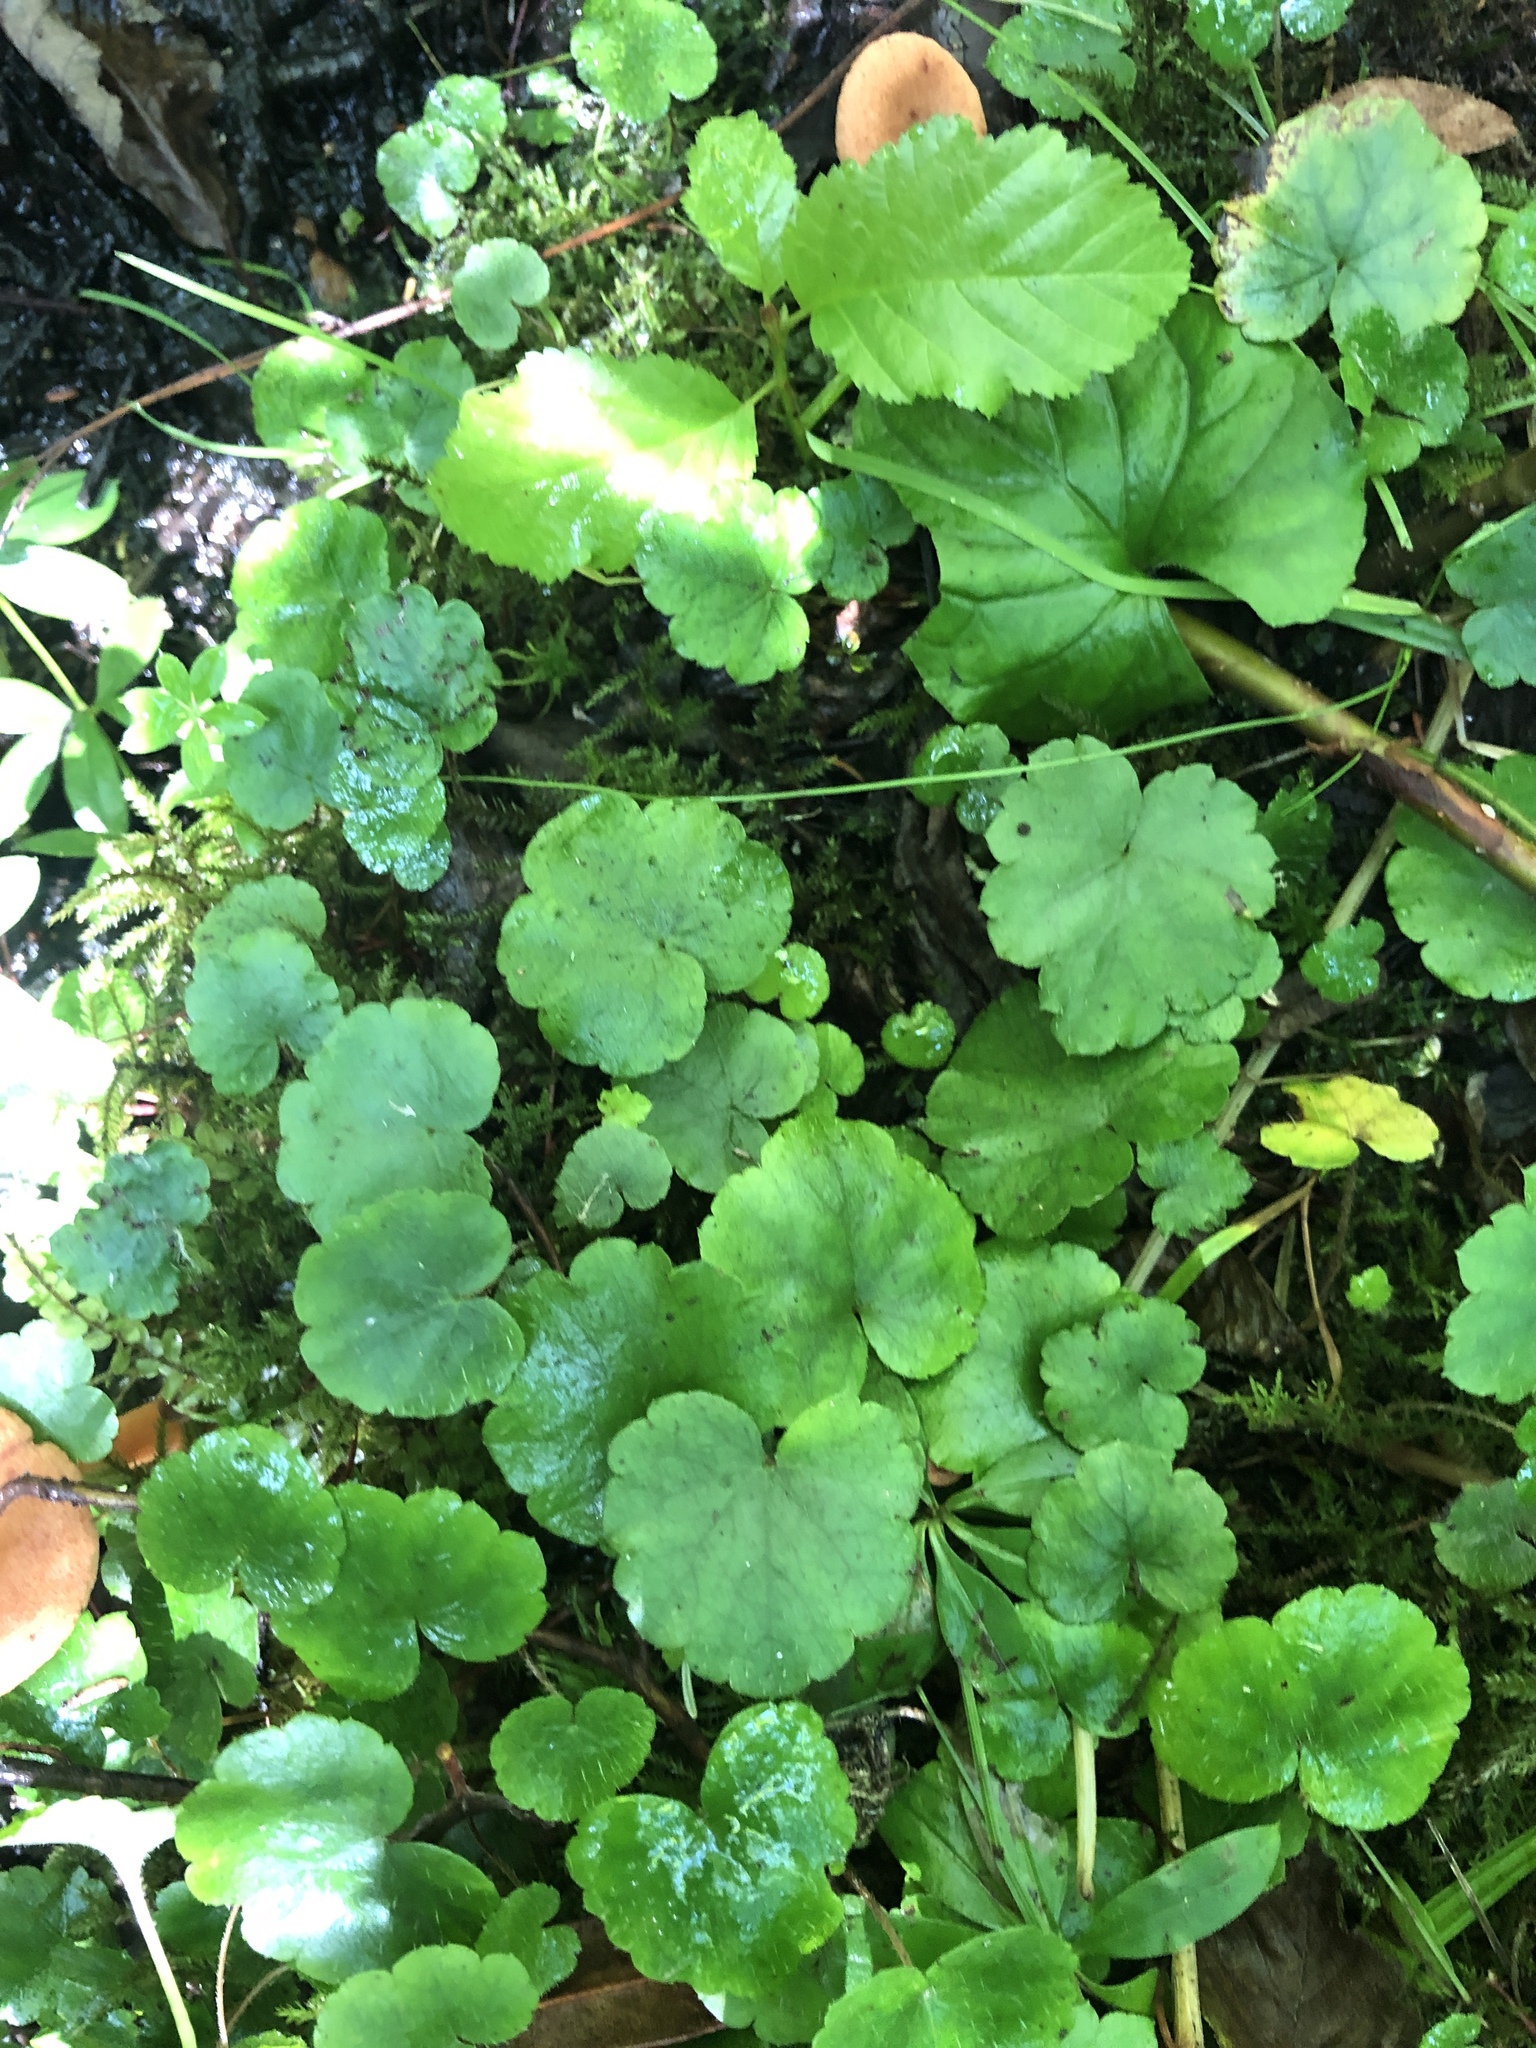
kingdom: Plantae
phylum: Tracheophyta
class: Magnoliopsida
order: Saxifragales
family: Saxifragaceae
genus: Mitella
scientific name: Mitella nuda
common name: Bare-stemmed bishop's-cap
